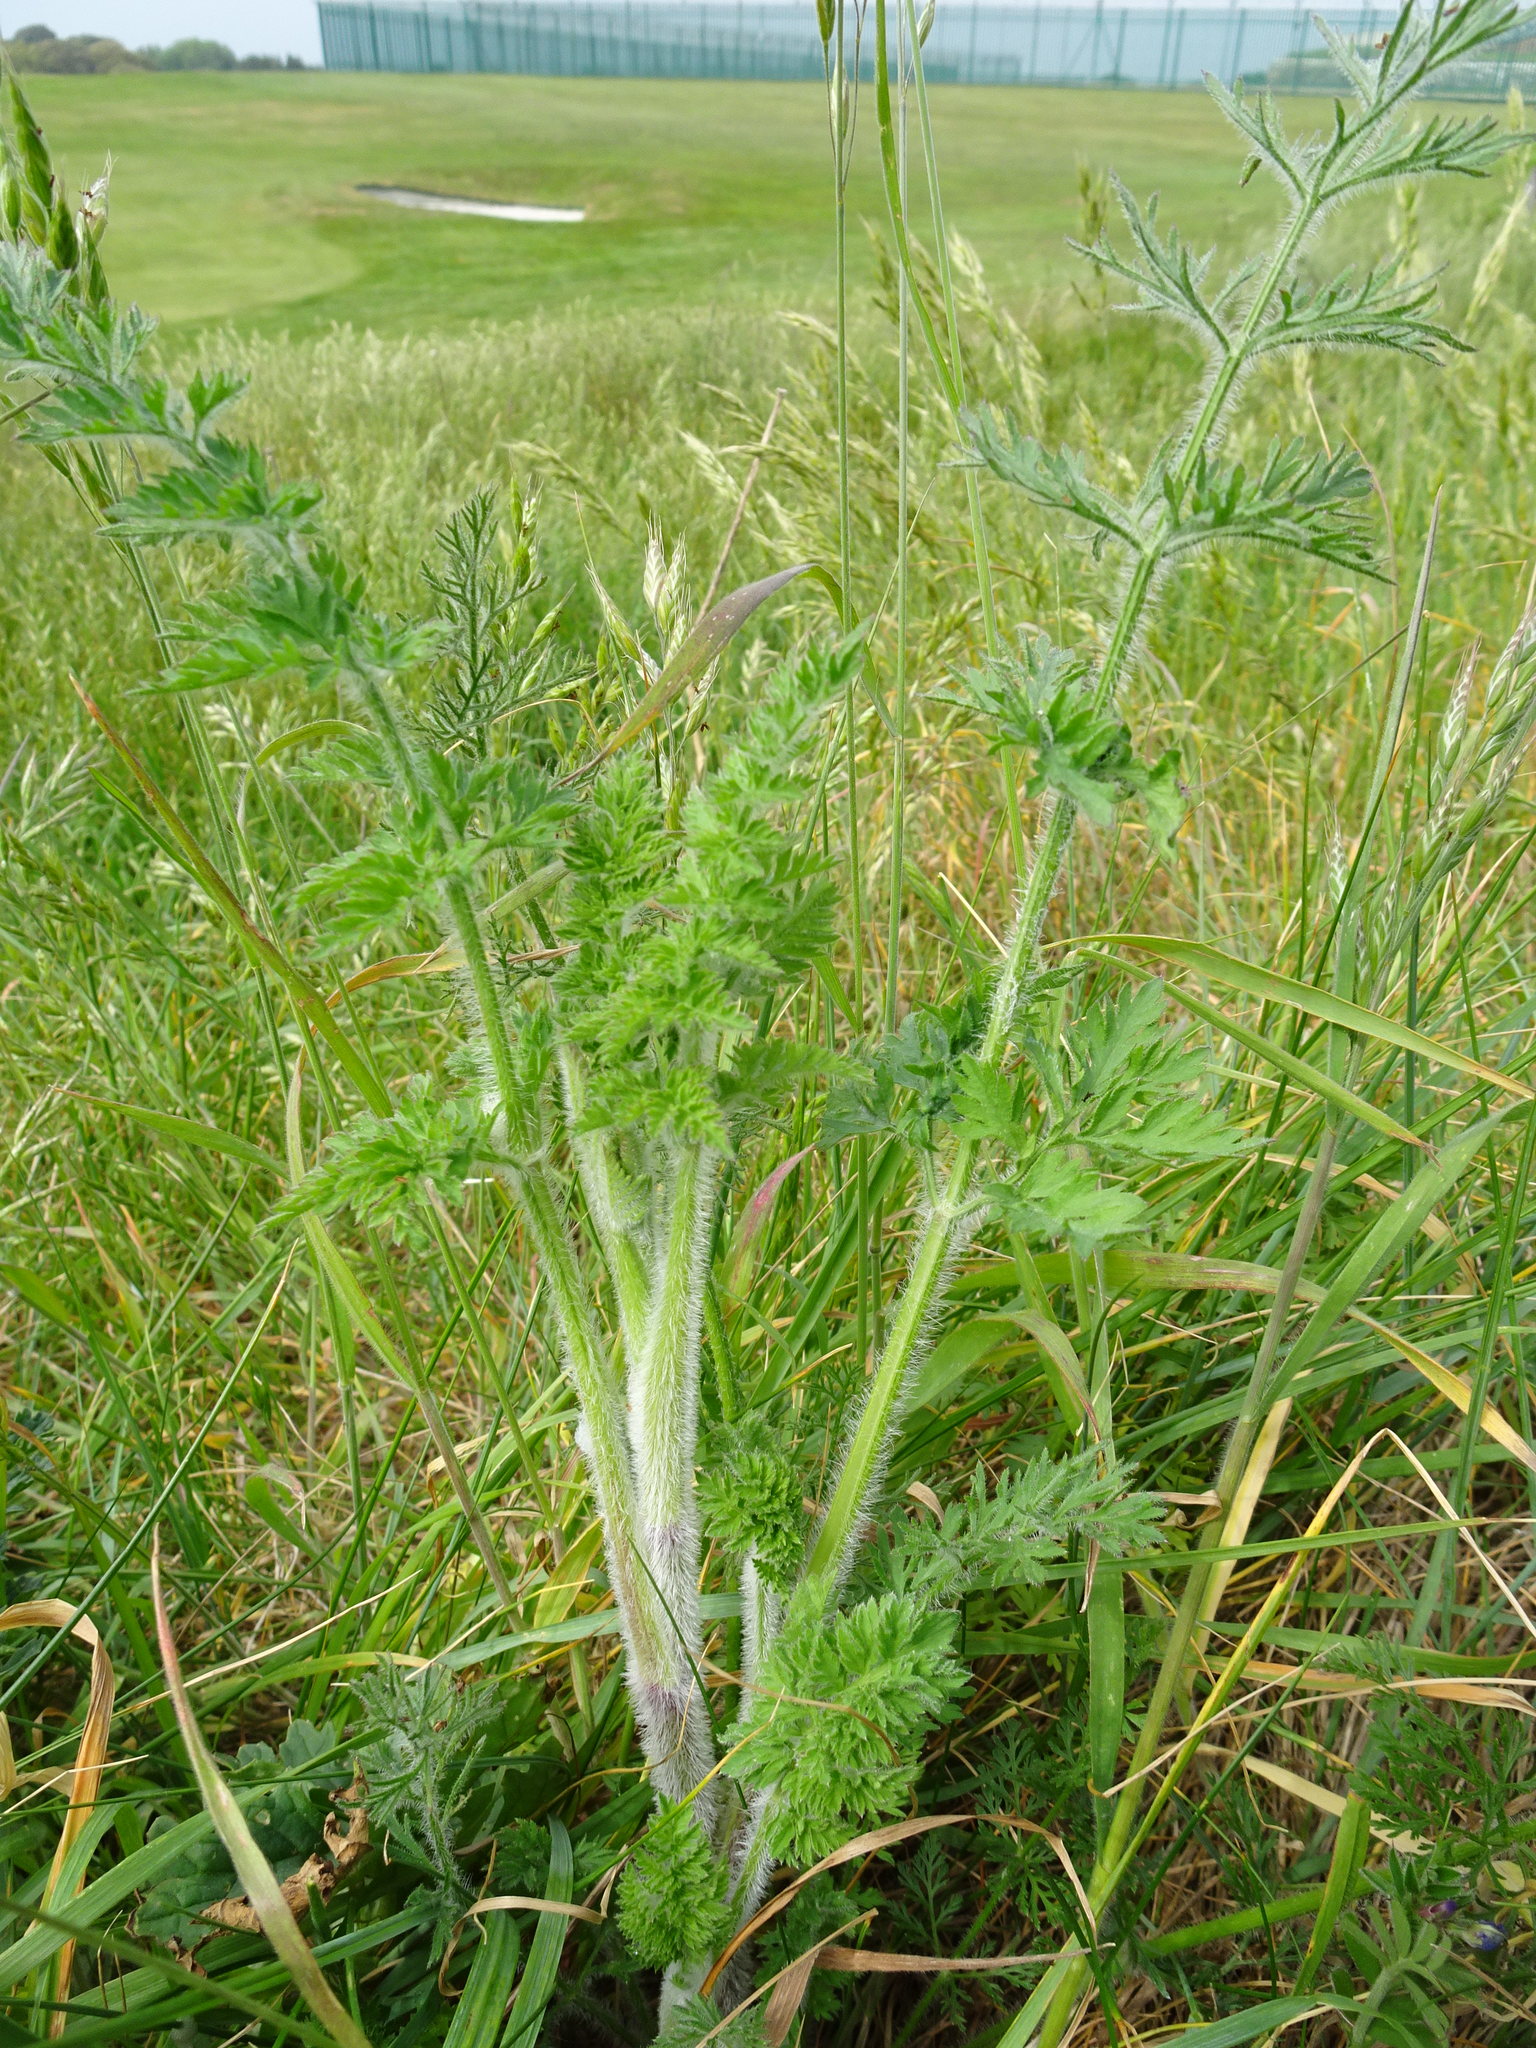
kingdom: Plantae
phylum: Tracheophyta
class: Magnoliopsida
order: Apiales
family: Apiaceae
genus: Daucus
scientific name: Daucus carota
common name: Wild carrot
